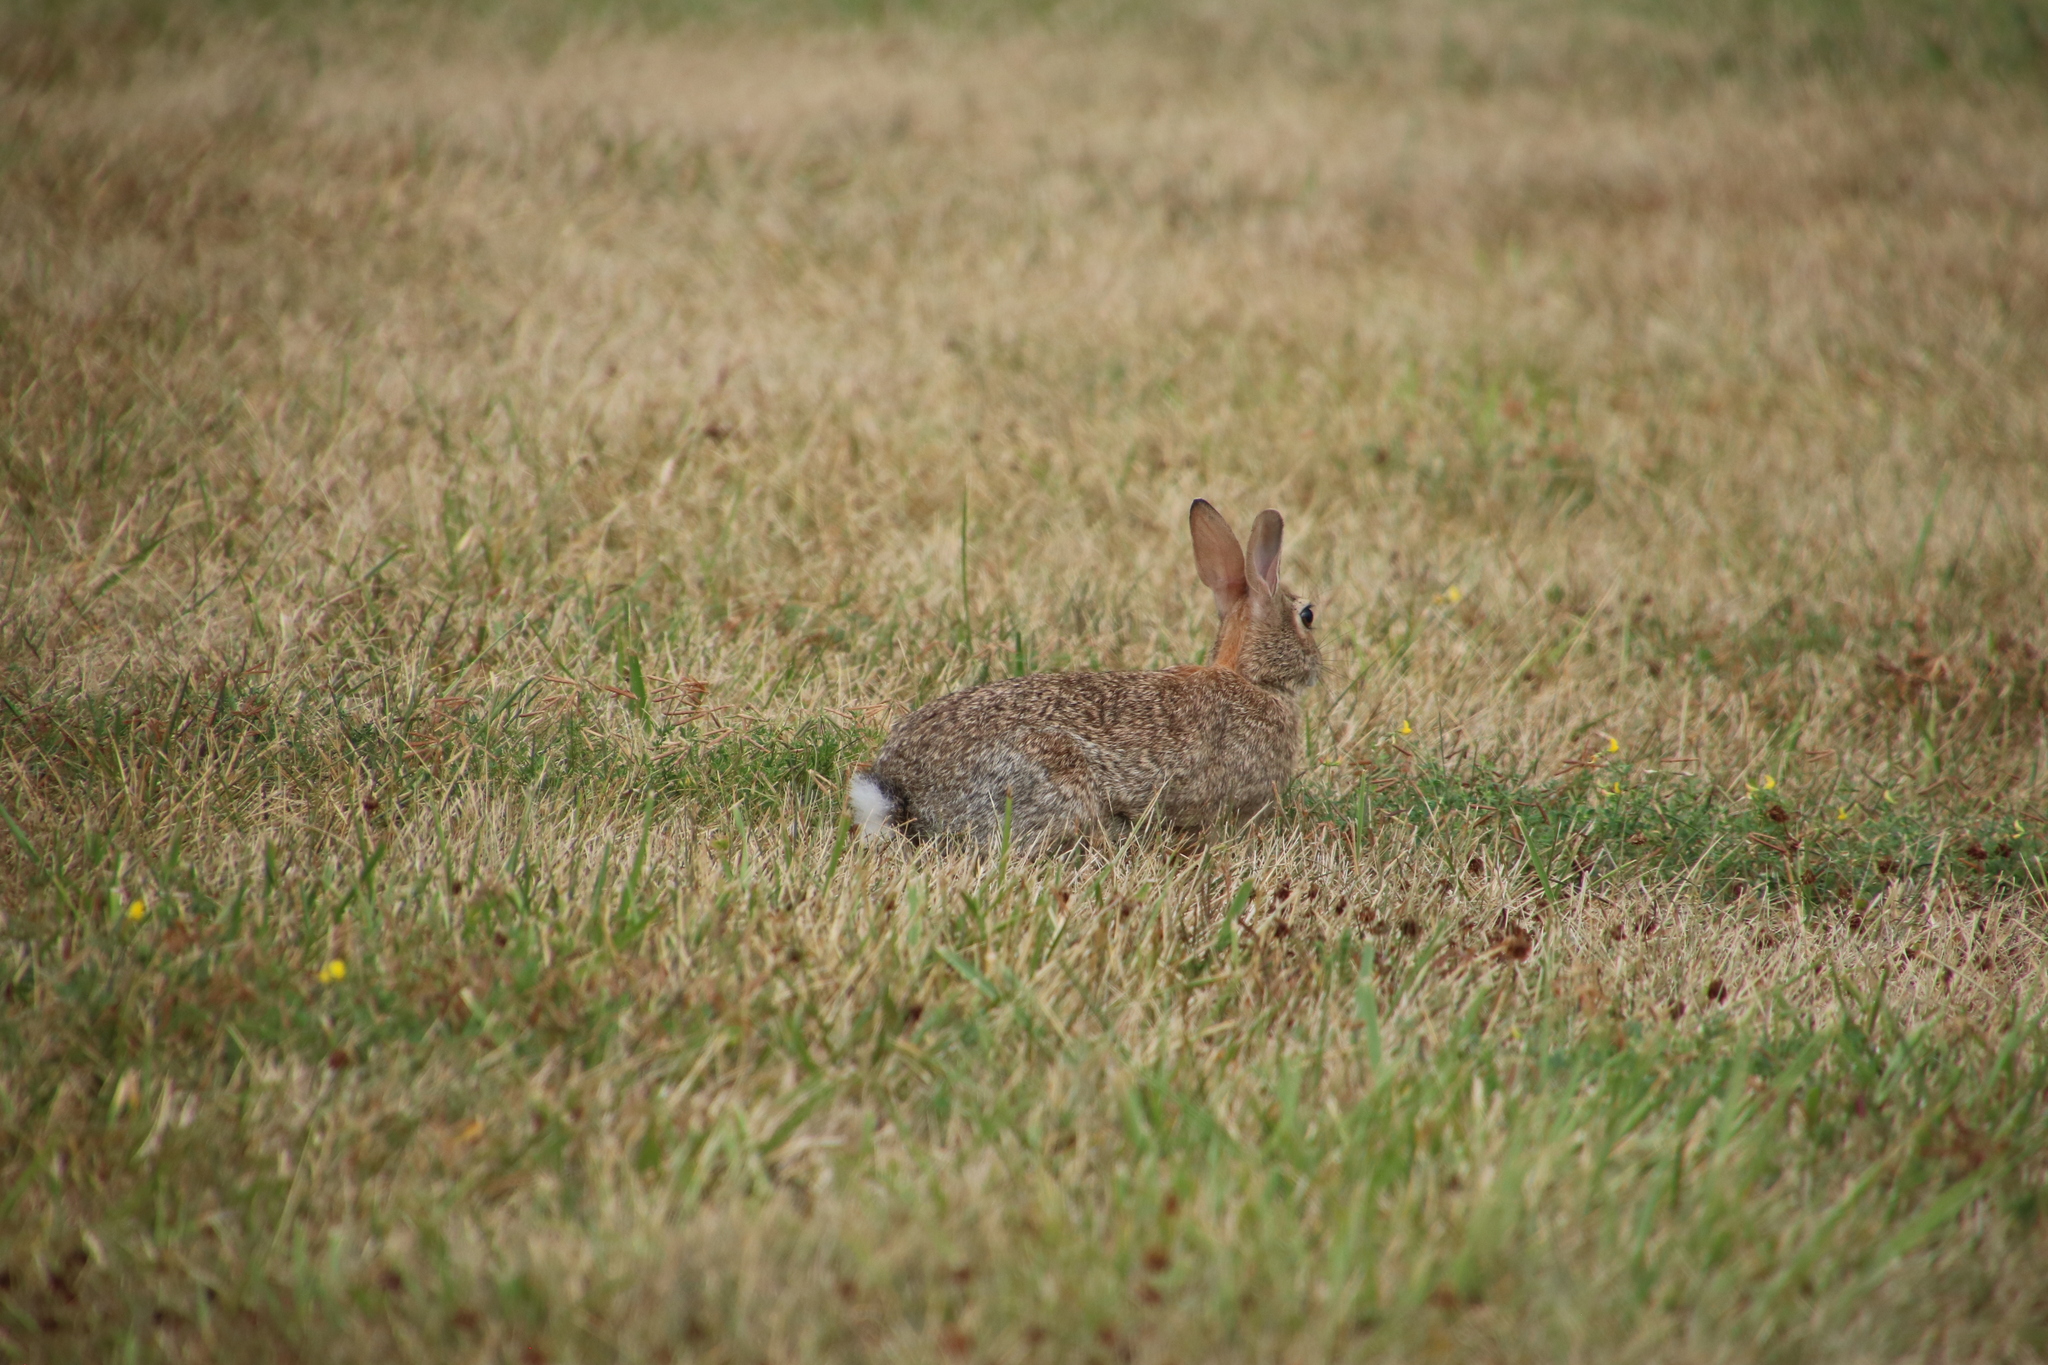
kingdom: Animalia
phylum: Chordata
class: Mammalia
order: Lagomorpha
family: Leporidae
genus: Sylvilagus
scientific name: Sylvilagus floridanus
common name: Eastern cottontail
